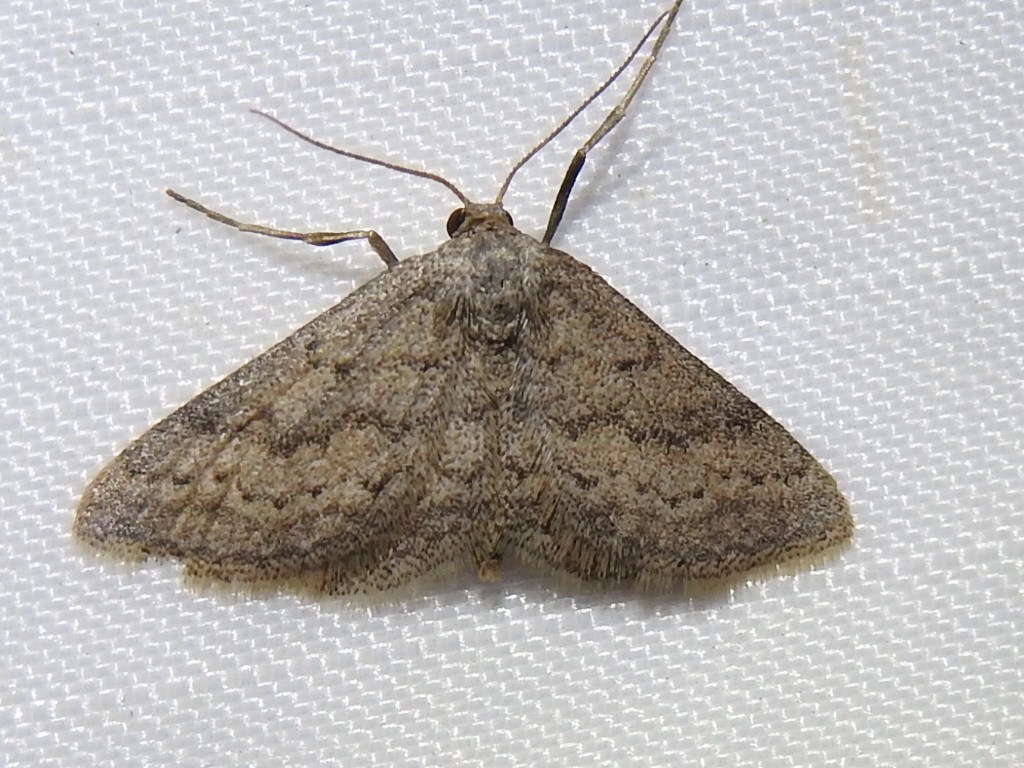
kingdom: Animalia
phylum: Arthropoda
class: Insecta
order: Lepidoptera
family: Geometridae
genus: Lobocleta
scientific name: Lobocleta ossularia
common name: Drab brown wave
